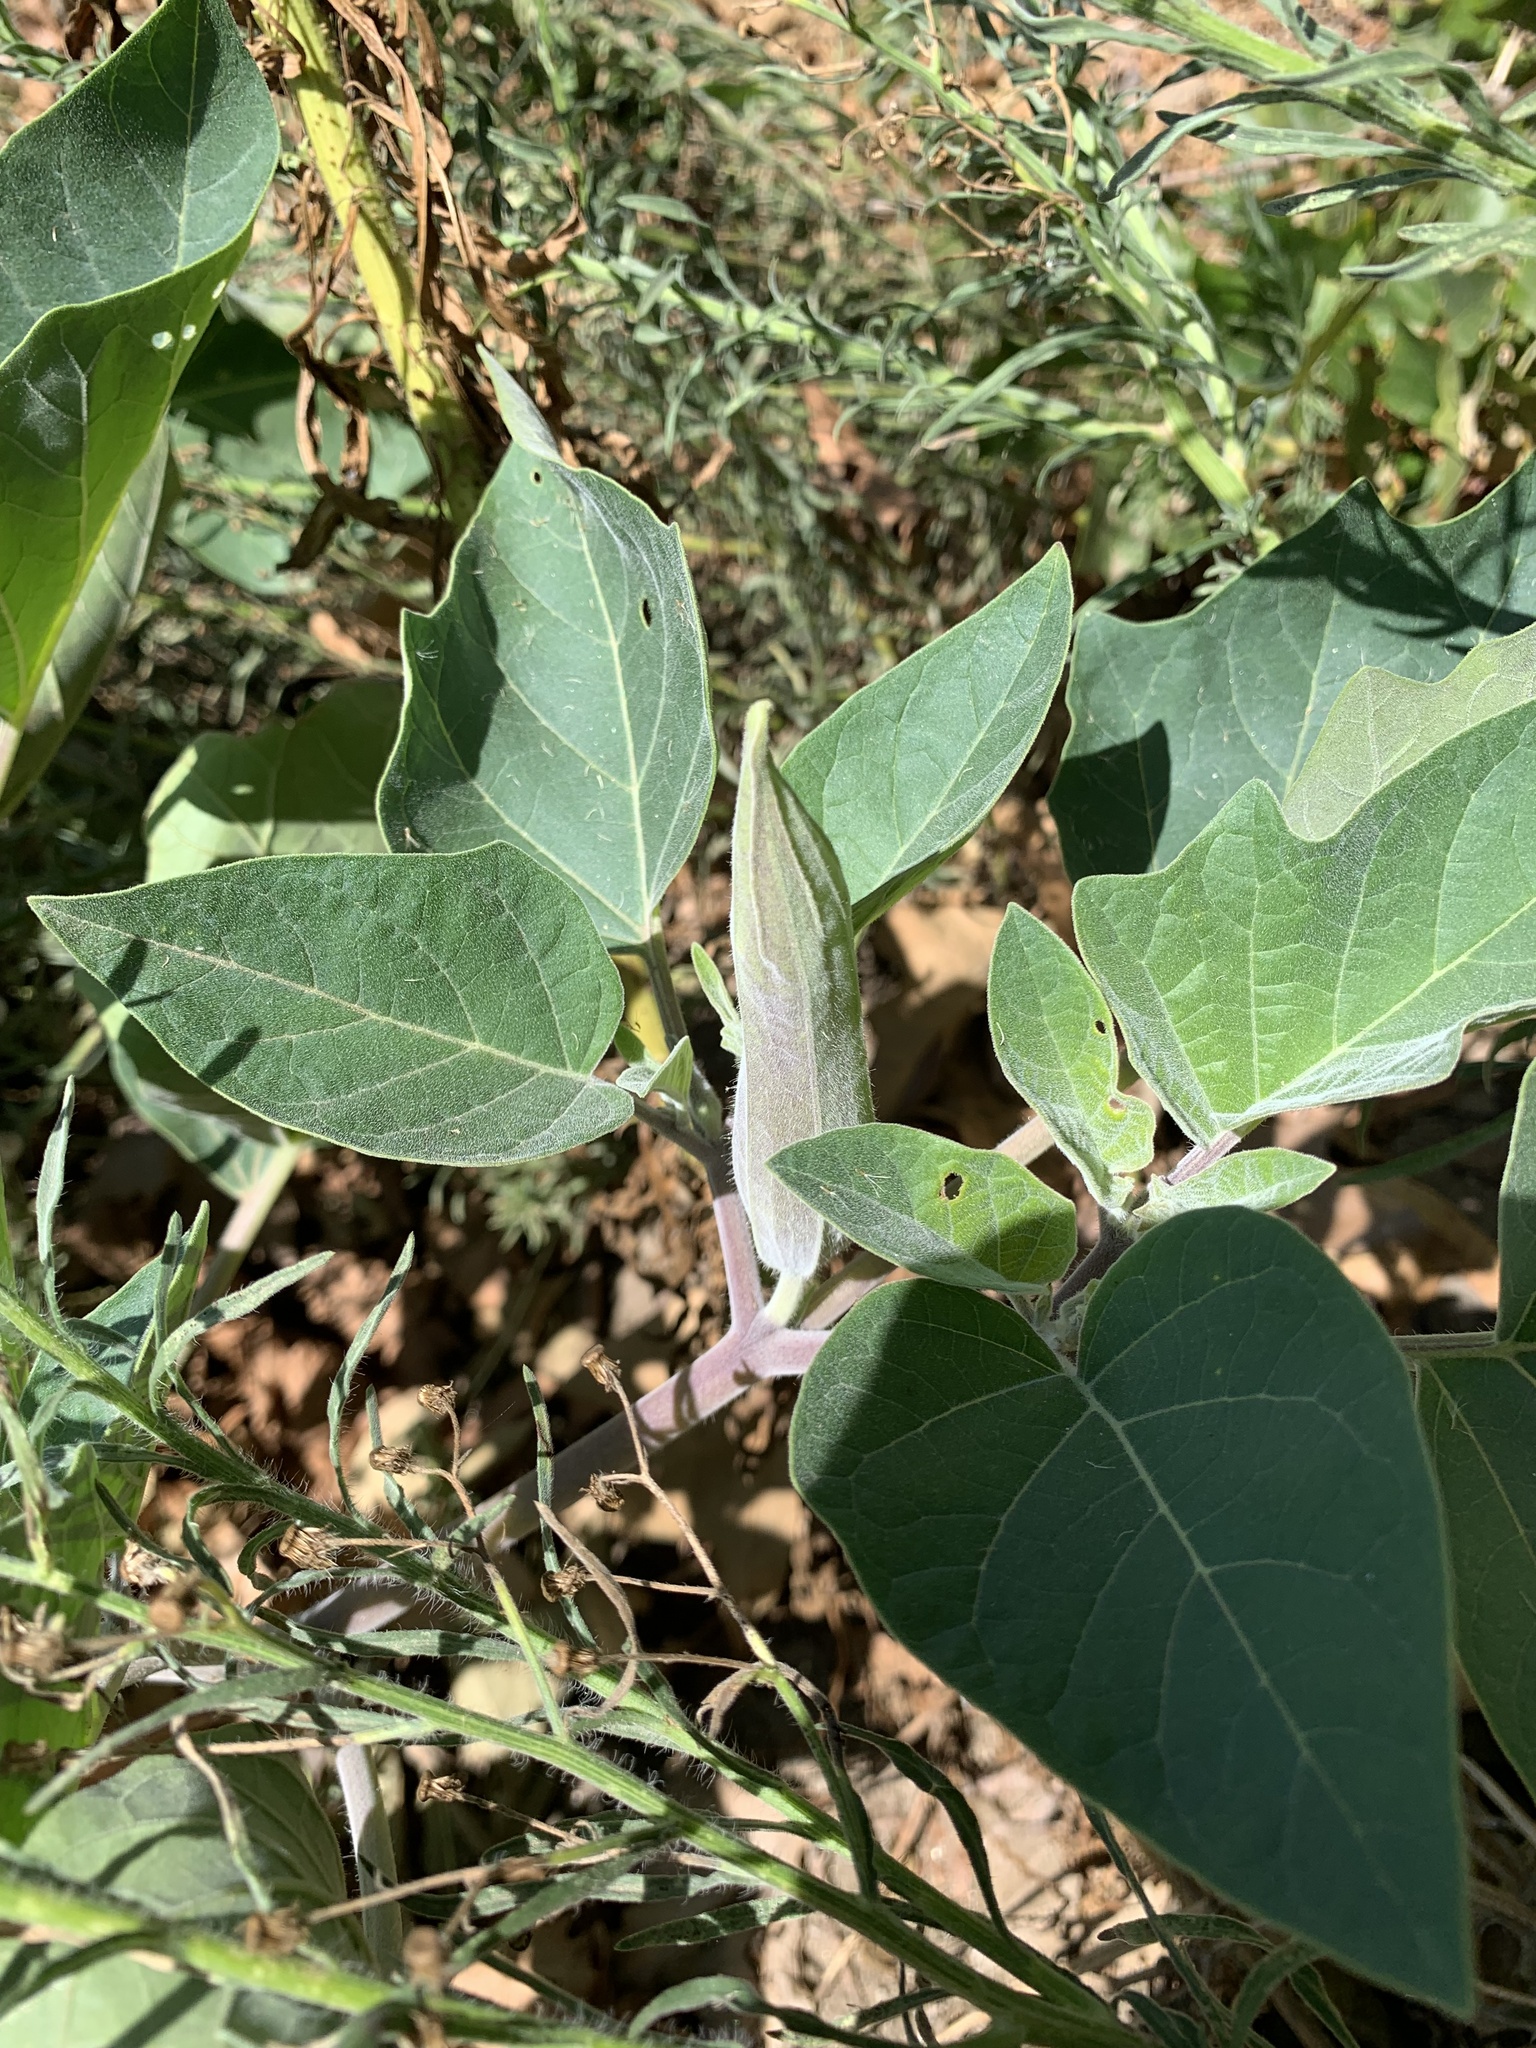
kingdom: Plantae
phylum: Tracheophyta
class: Magnoliopsida
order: Solanales
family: Solanaceae
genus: Datura
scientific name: Datura wrightii
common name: Sacred thorn-apple
